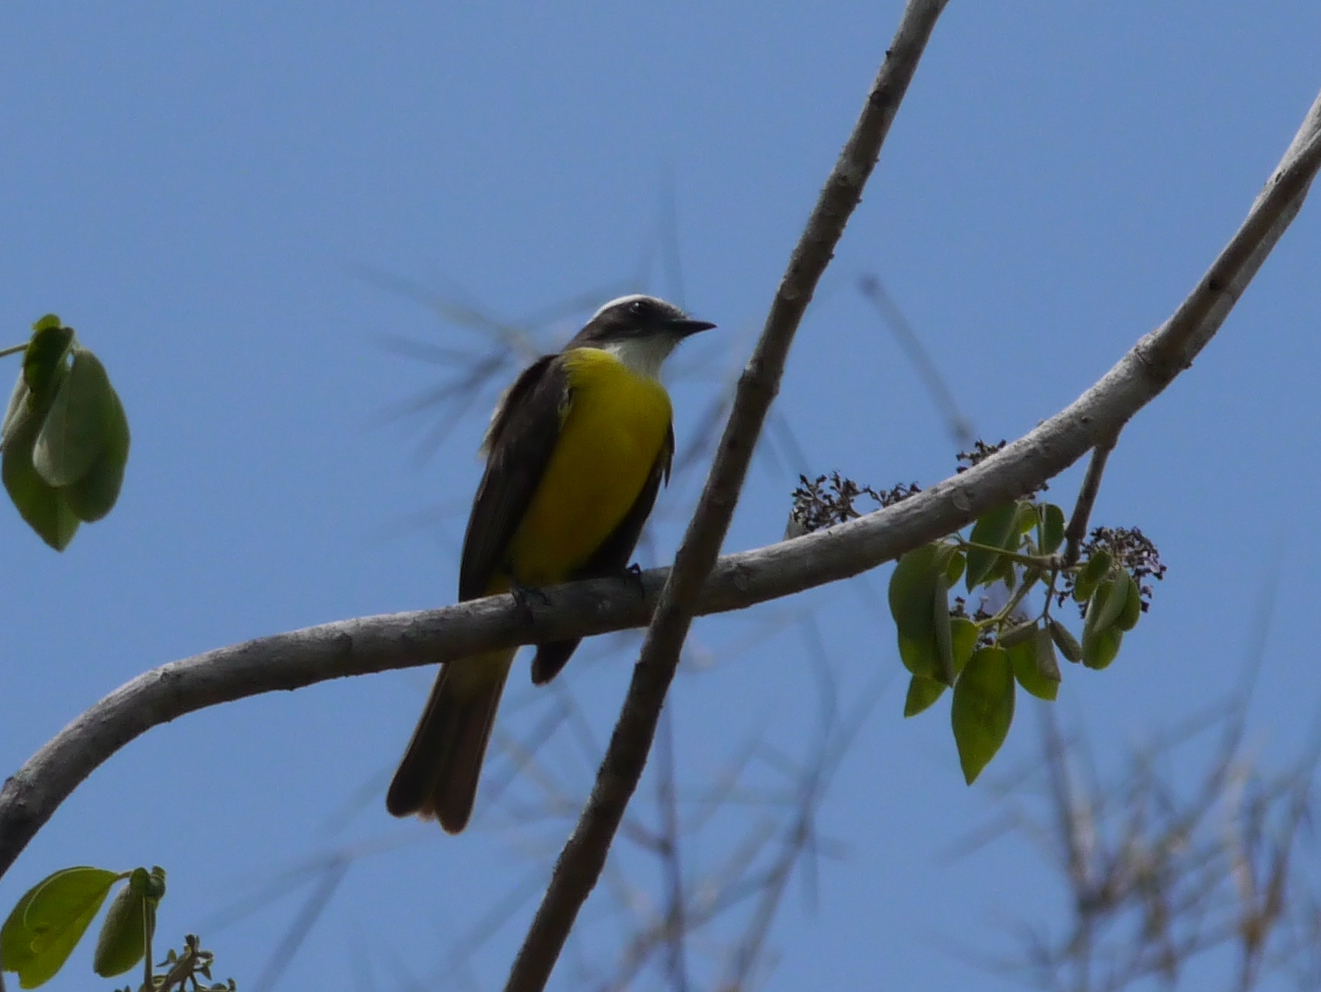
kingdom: Animalia
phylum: Chordata
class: Aves
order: Passeriformes
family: Tyrannidae
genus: Myiozetetes
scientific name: Myiozetetes similis
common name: Social flycatcher
